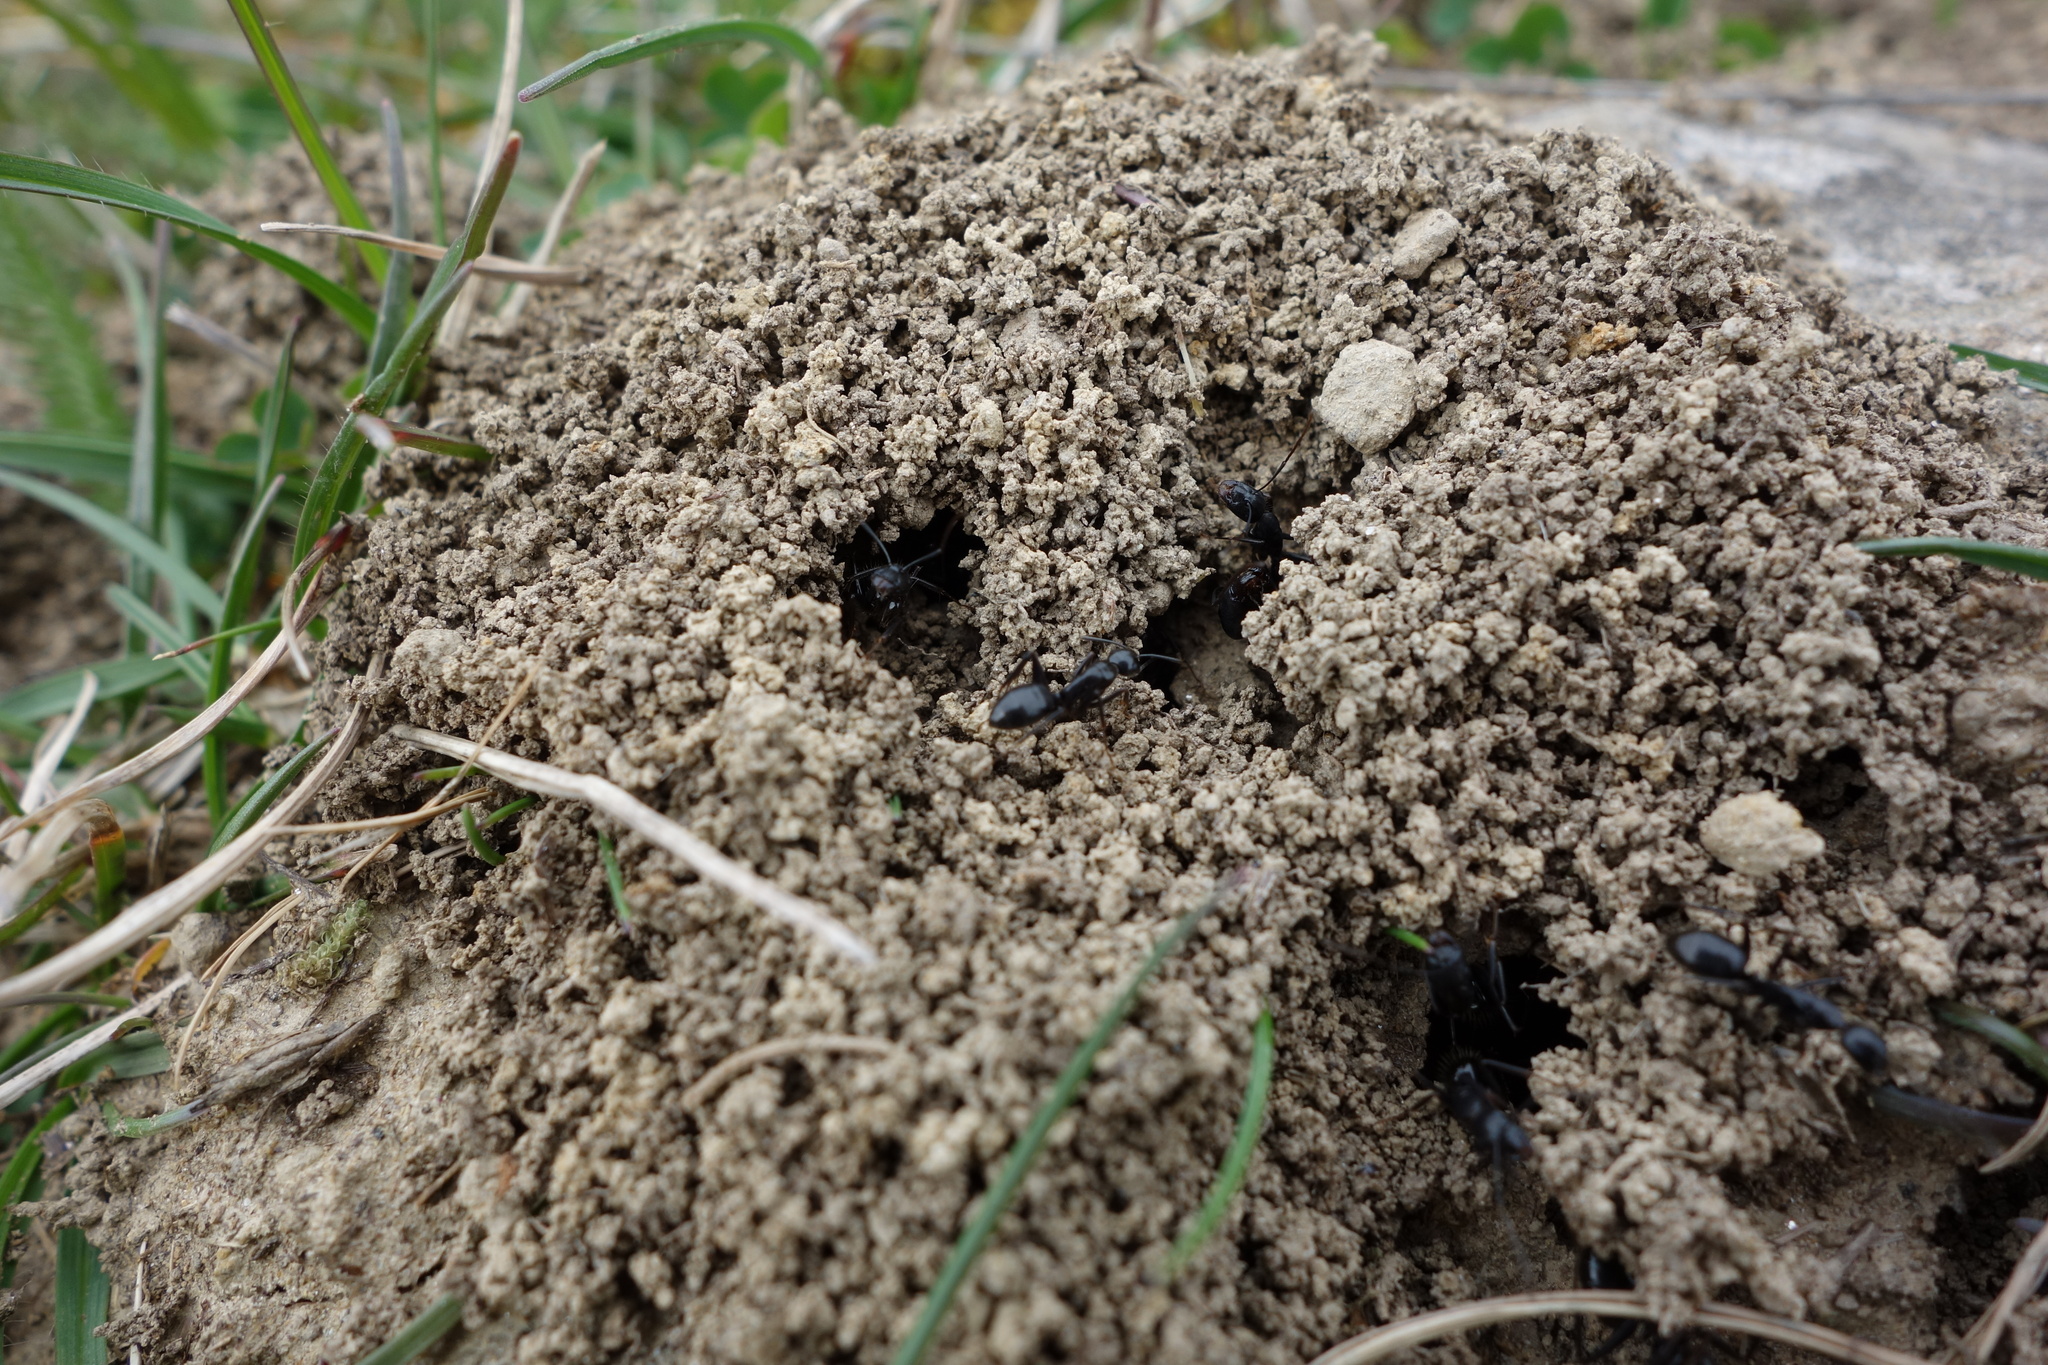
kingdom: Animalia
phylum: Arthropoda
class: Insecta
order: Hymenoptera
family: Formicidae
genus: Camponotus
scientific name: Camponotus aethiops
